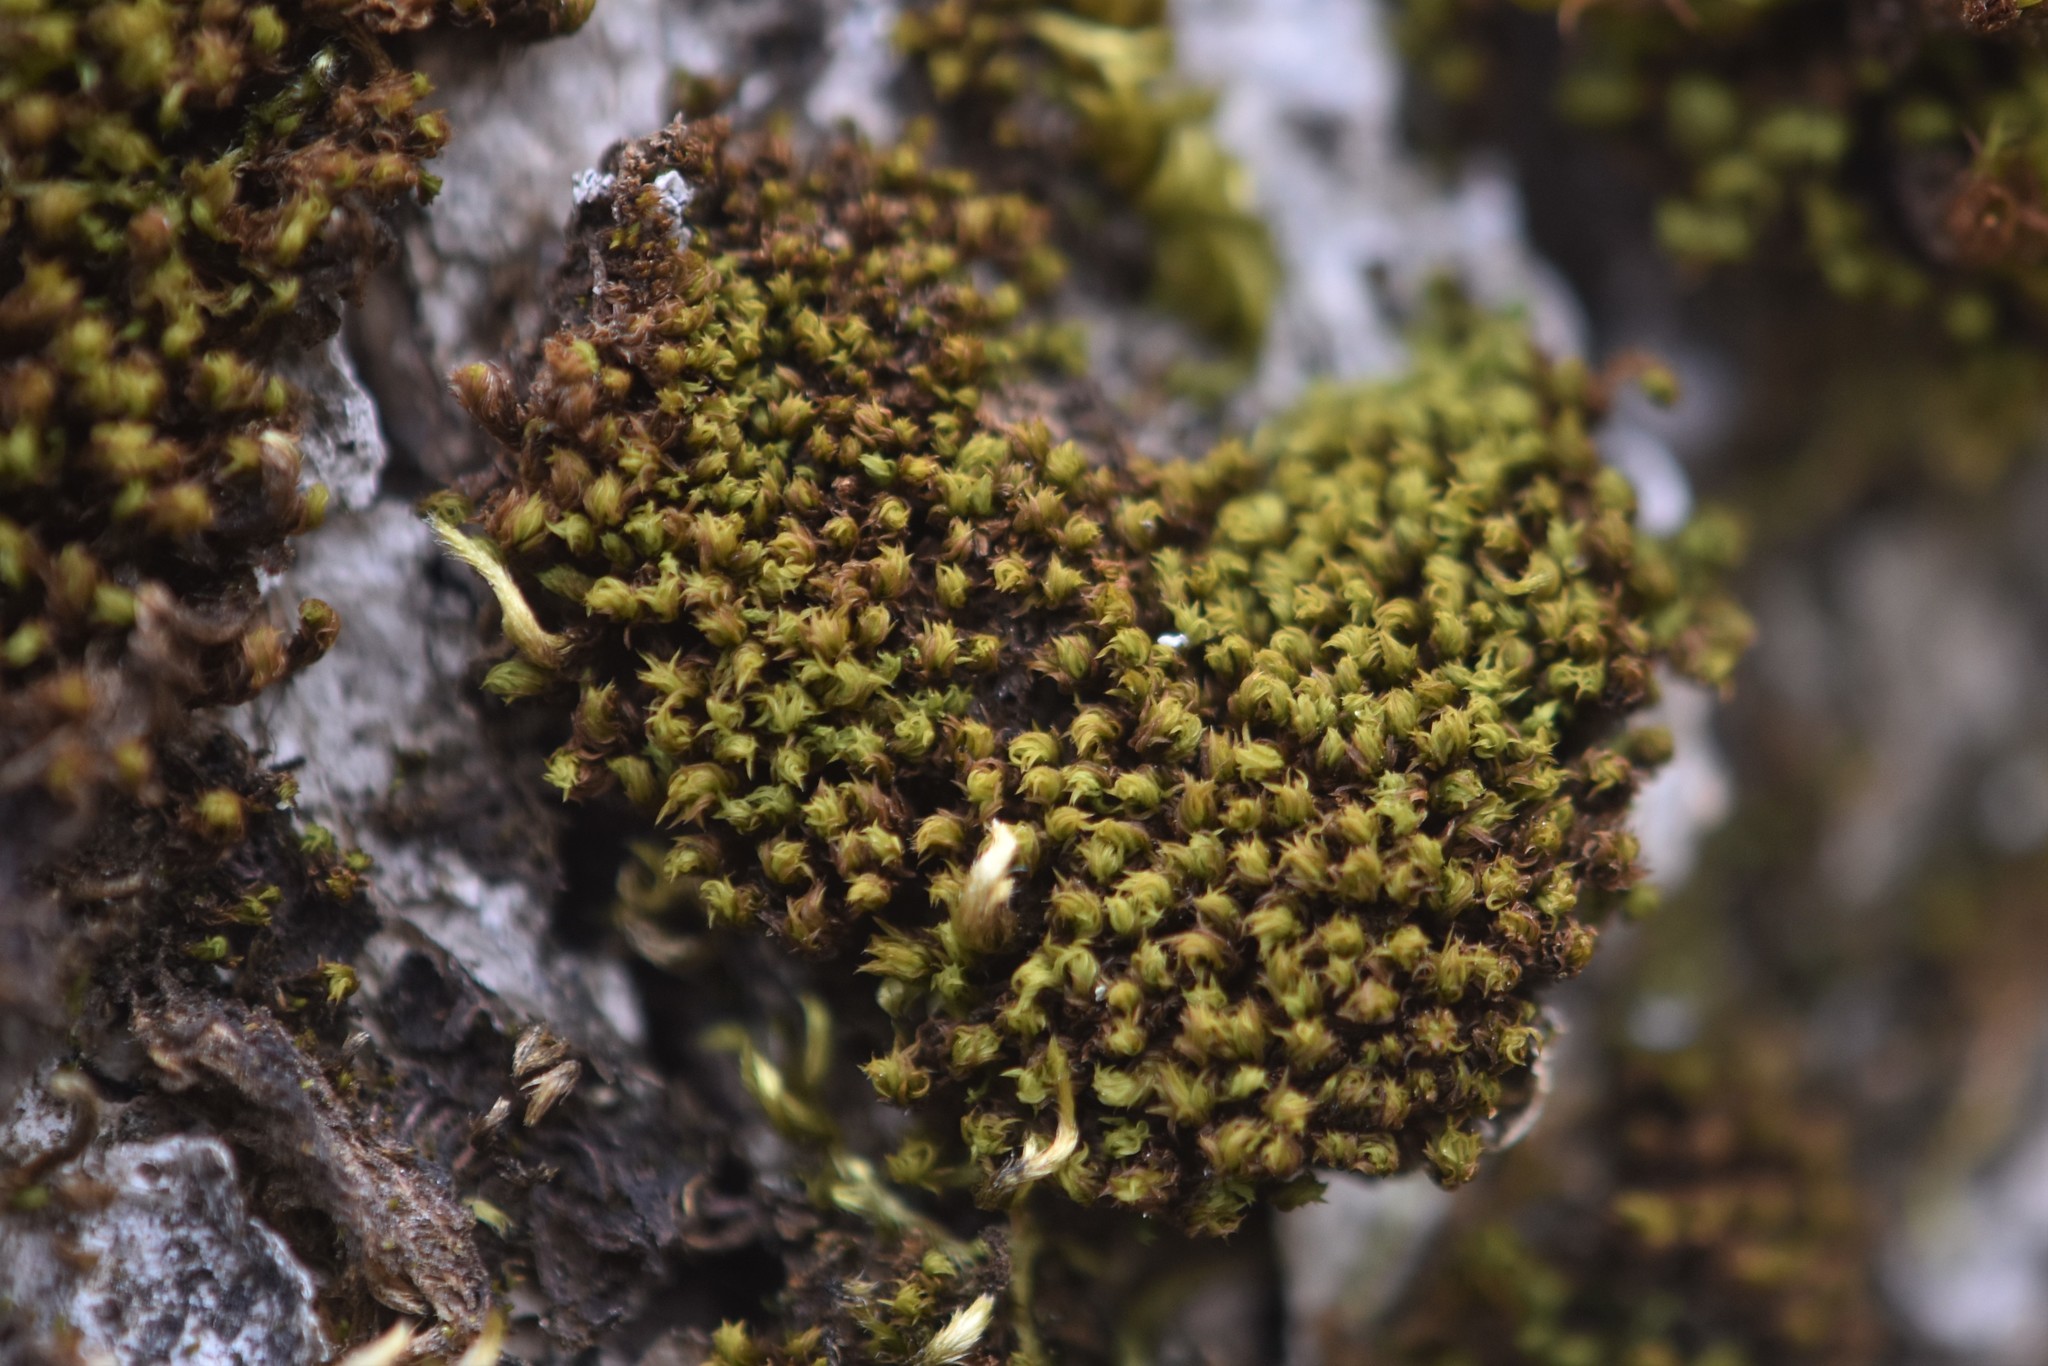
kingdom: Plantae
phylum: Bryophyta
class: Bryopsida
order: Orthotrichales
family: Orthotrichaceae
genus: Zygodon
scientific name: Zygodon viridissimus
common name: Green yoke moss
